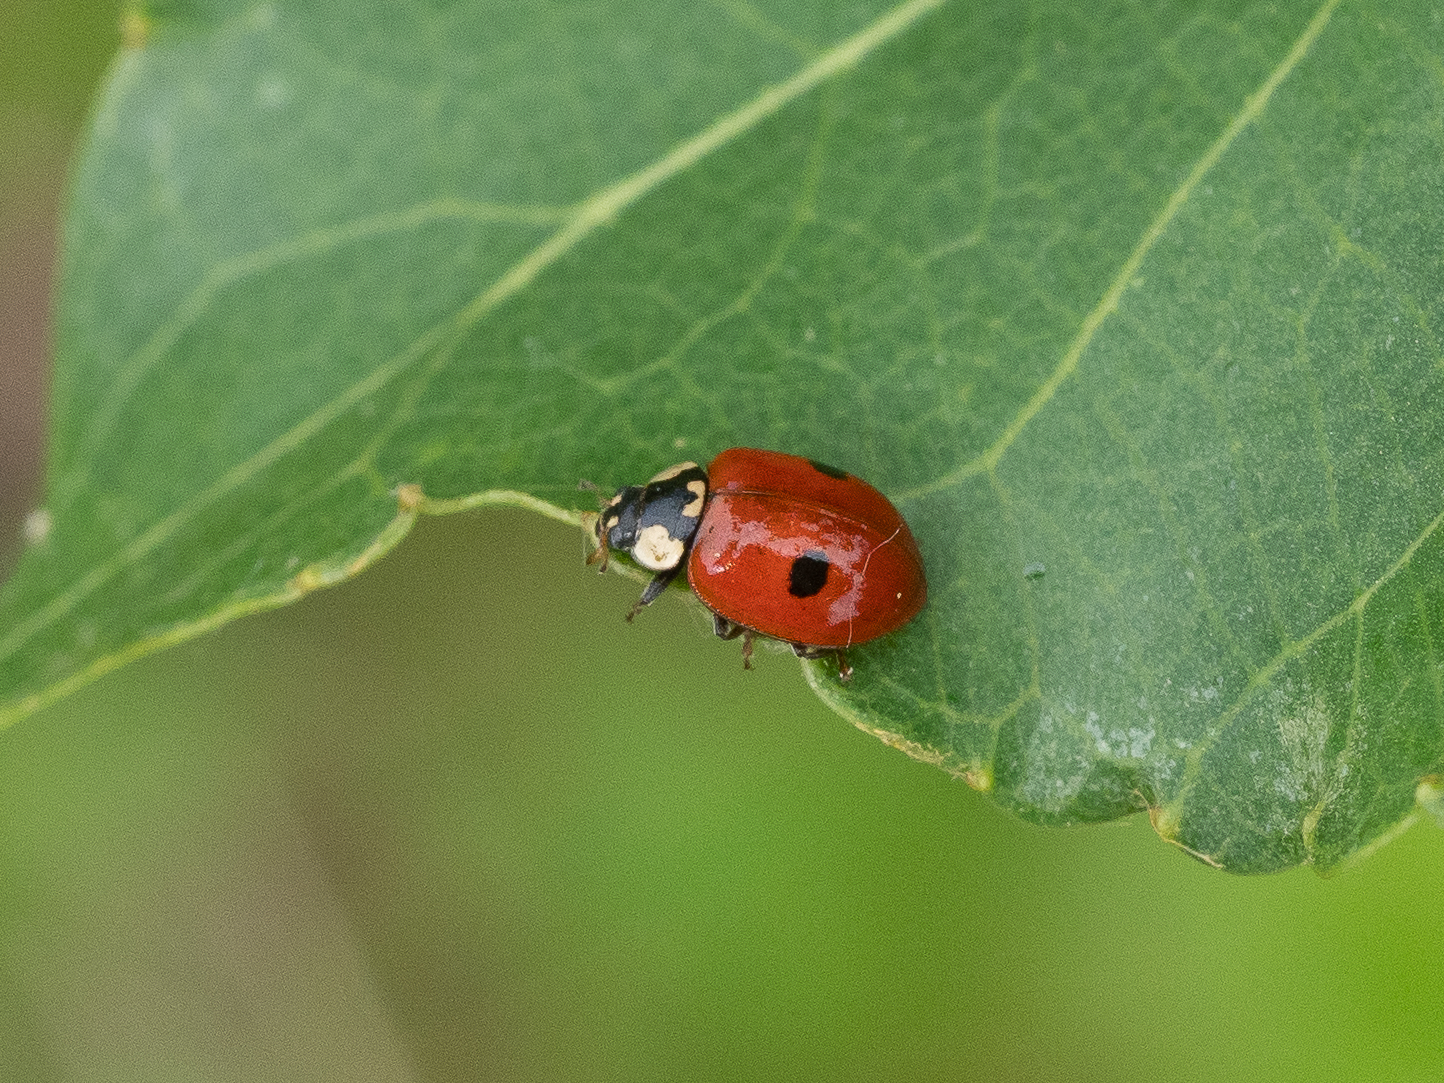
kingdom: Animalia
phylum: Arthropoda
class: Insecta
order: Coleoptera
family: Coccinellidae
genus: Adalia
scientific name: Adalia bipunctata
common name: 2-spot ladybird
